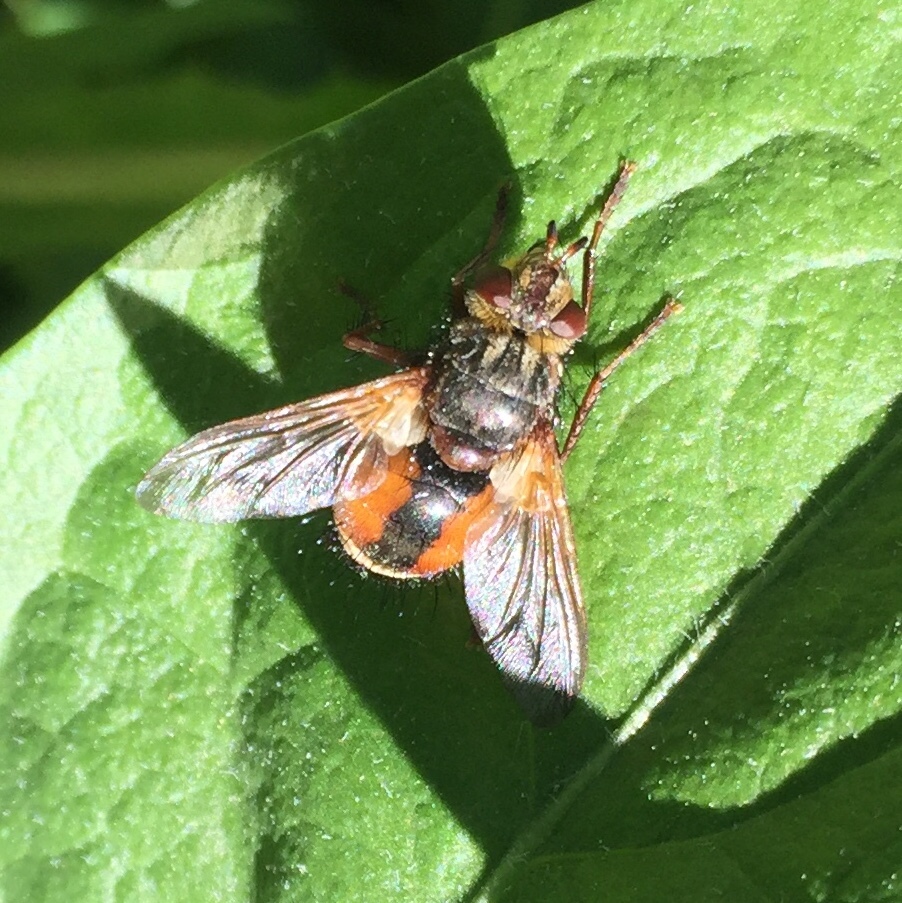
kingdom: Animalia
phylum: Arthropoda
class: Insecta
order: Diptera
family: Tachinidae
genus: Tachina
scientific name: Tachina fera
